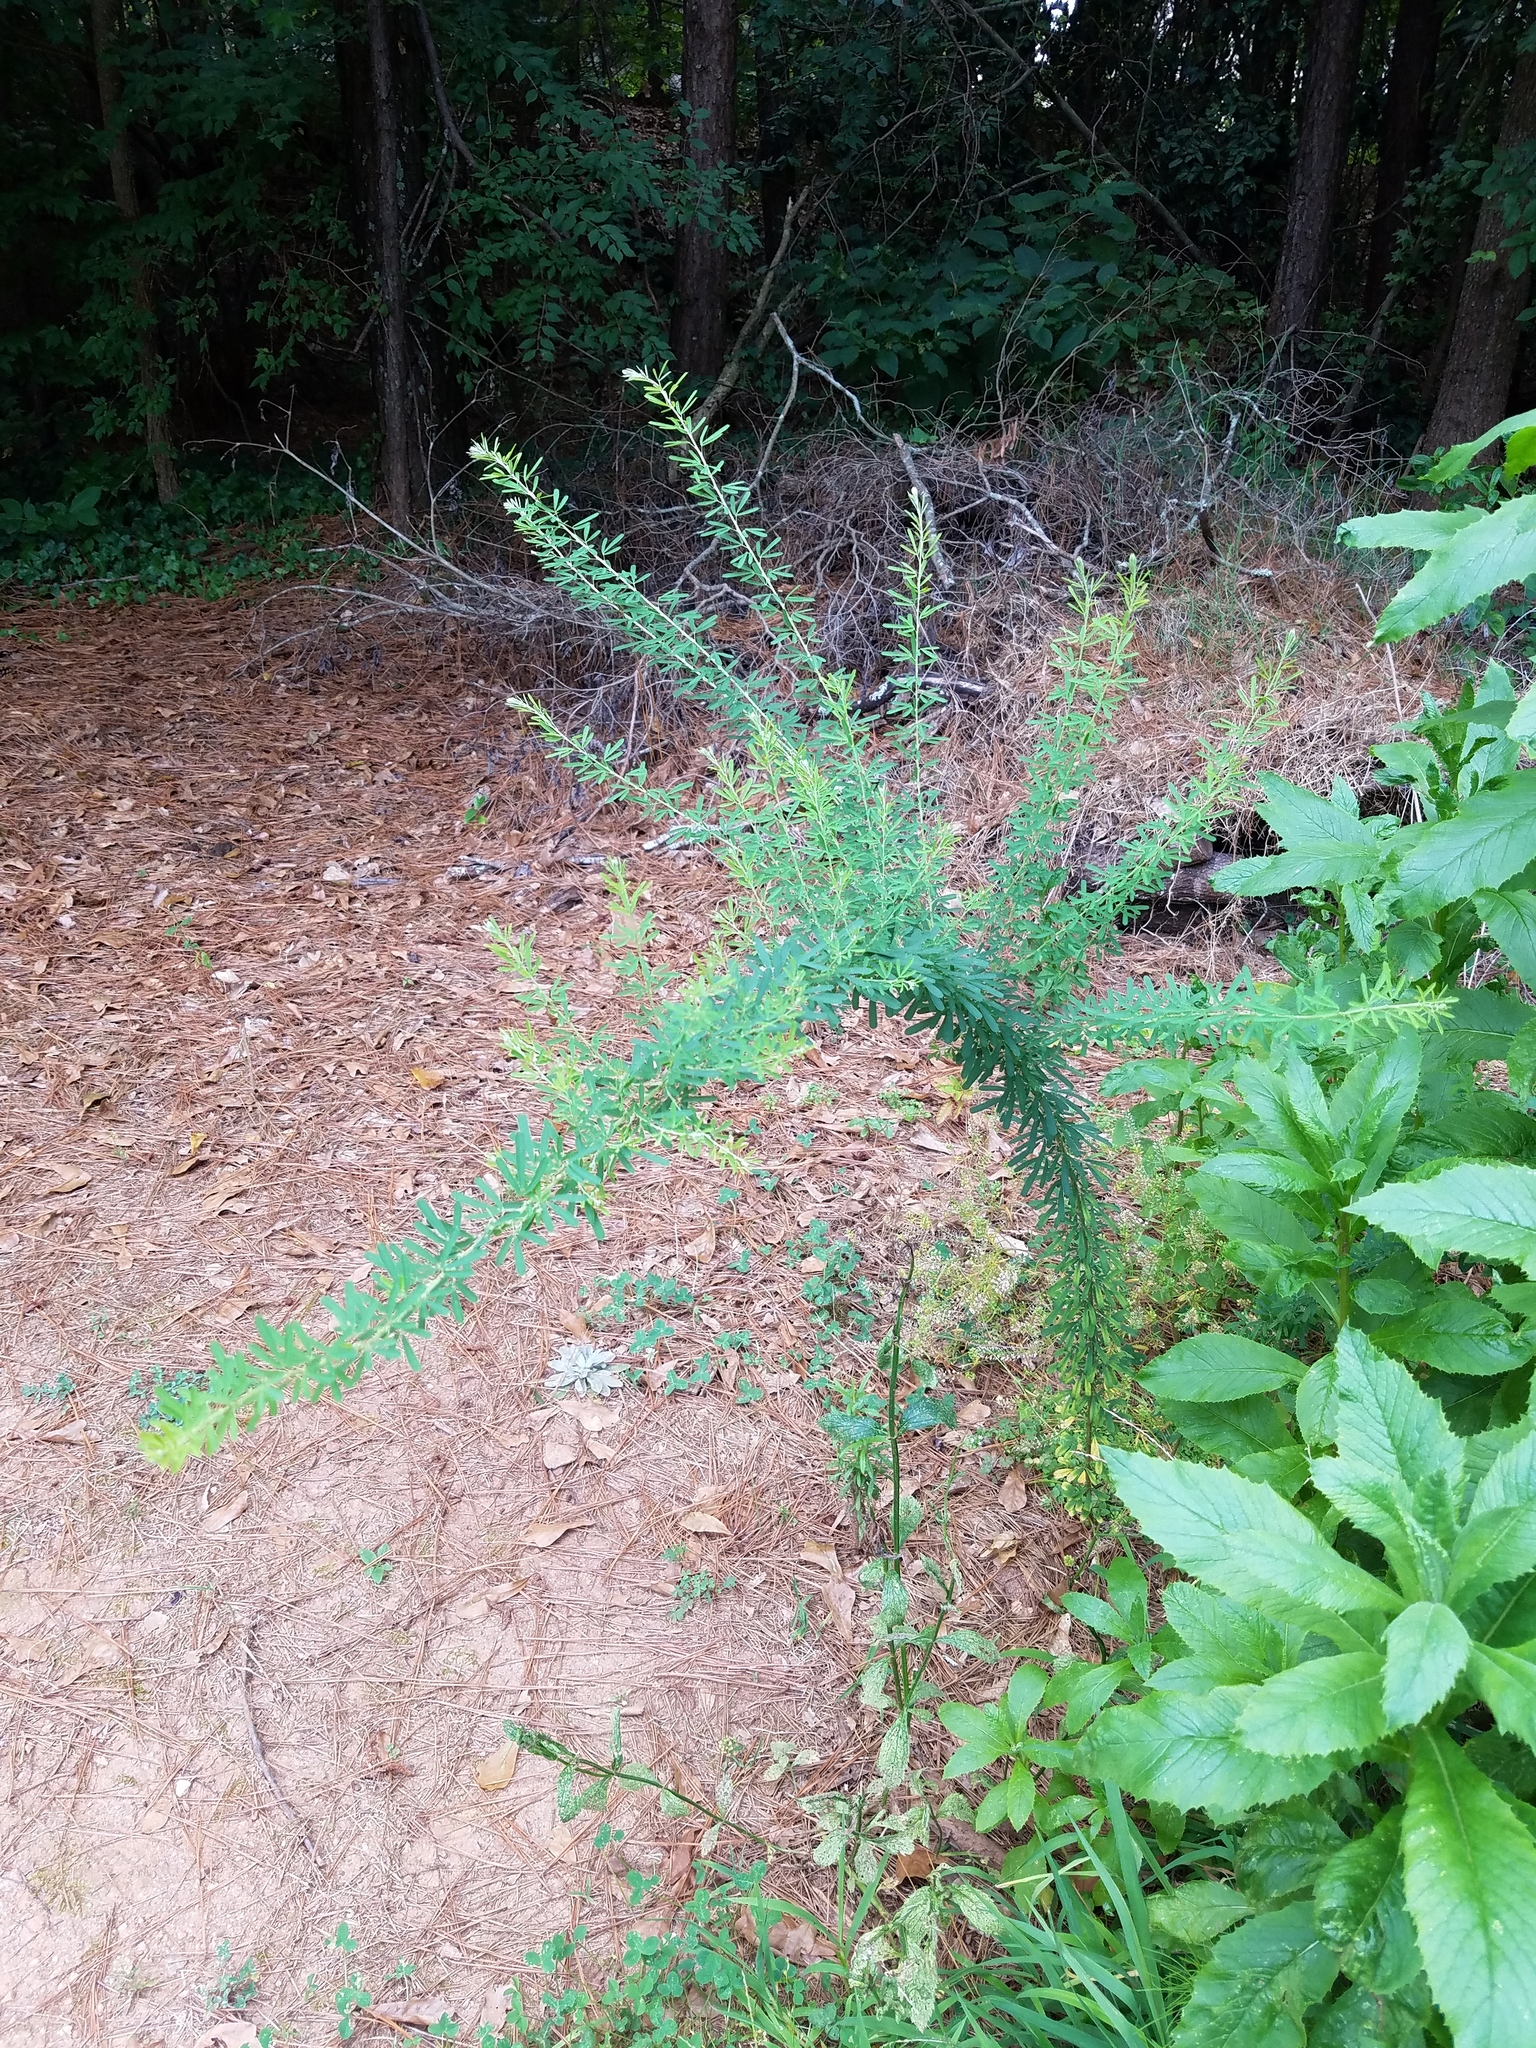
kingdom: Plantae
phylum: Tracheophyta
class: Magnoliopsida
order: Fabales
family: Fabaceae
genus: Lespedeza
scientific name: Lespedeza cuneata
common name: Chinese bush-clover
